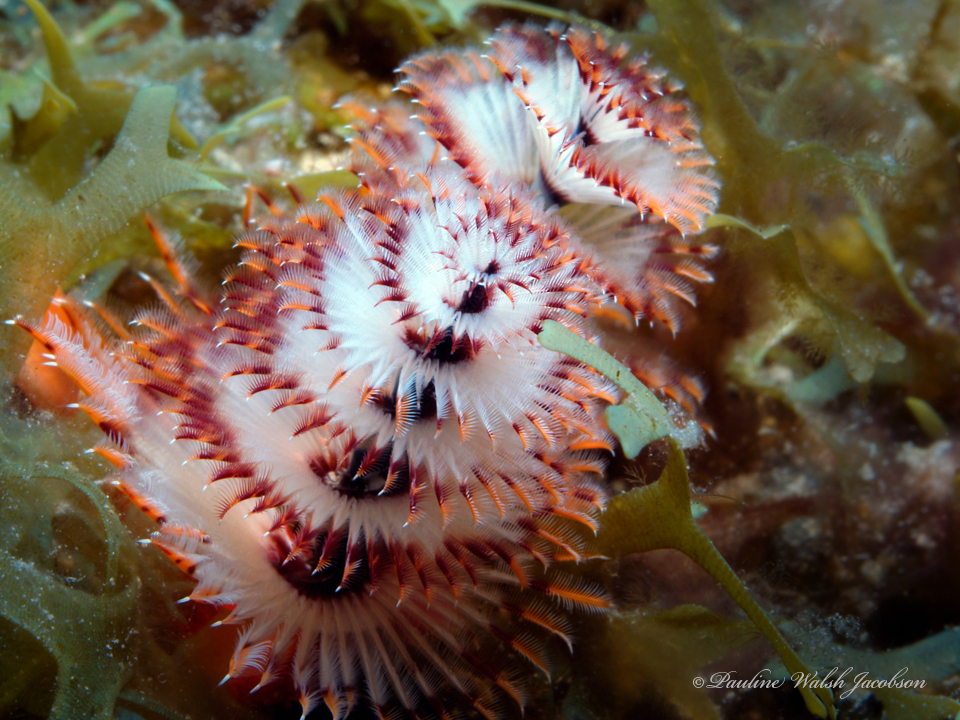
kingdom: Animalia
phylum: Annelida
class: Polychaeta
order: Sabellida
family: Serpulidae
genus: Spirobranchus
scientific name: Spirobranchus giganteus
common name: Christmas tree worm
